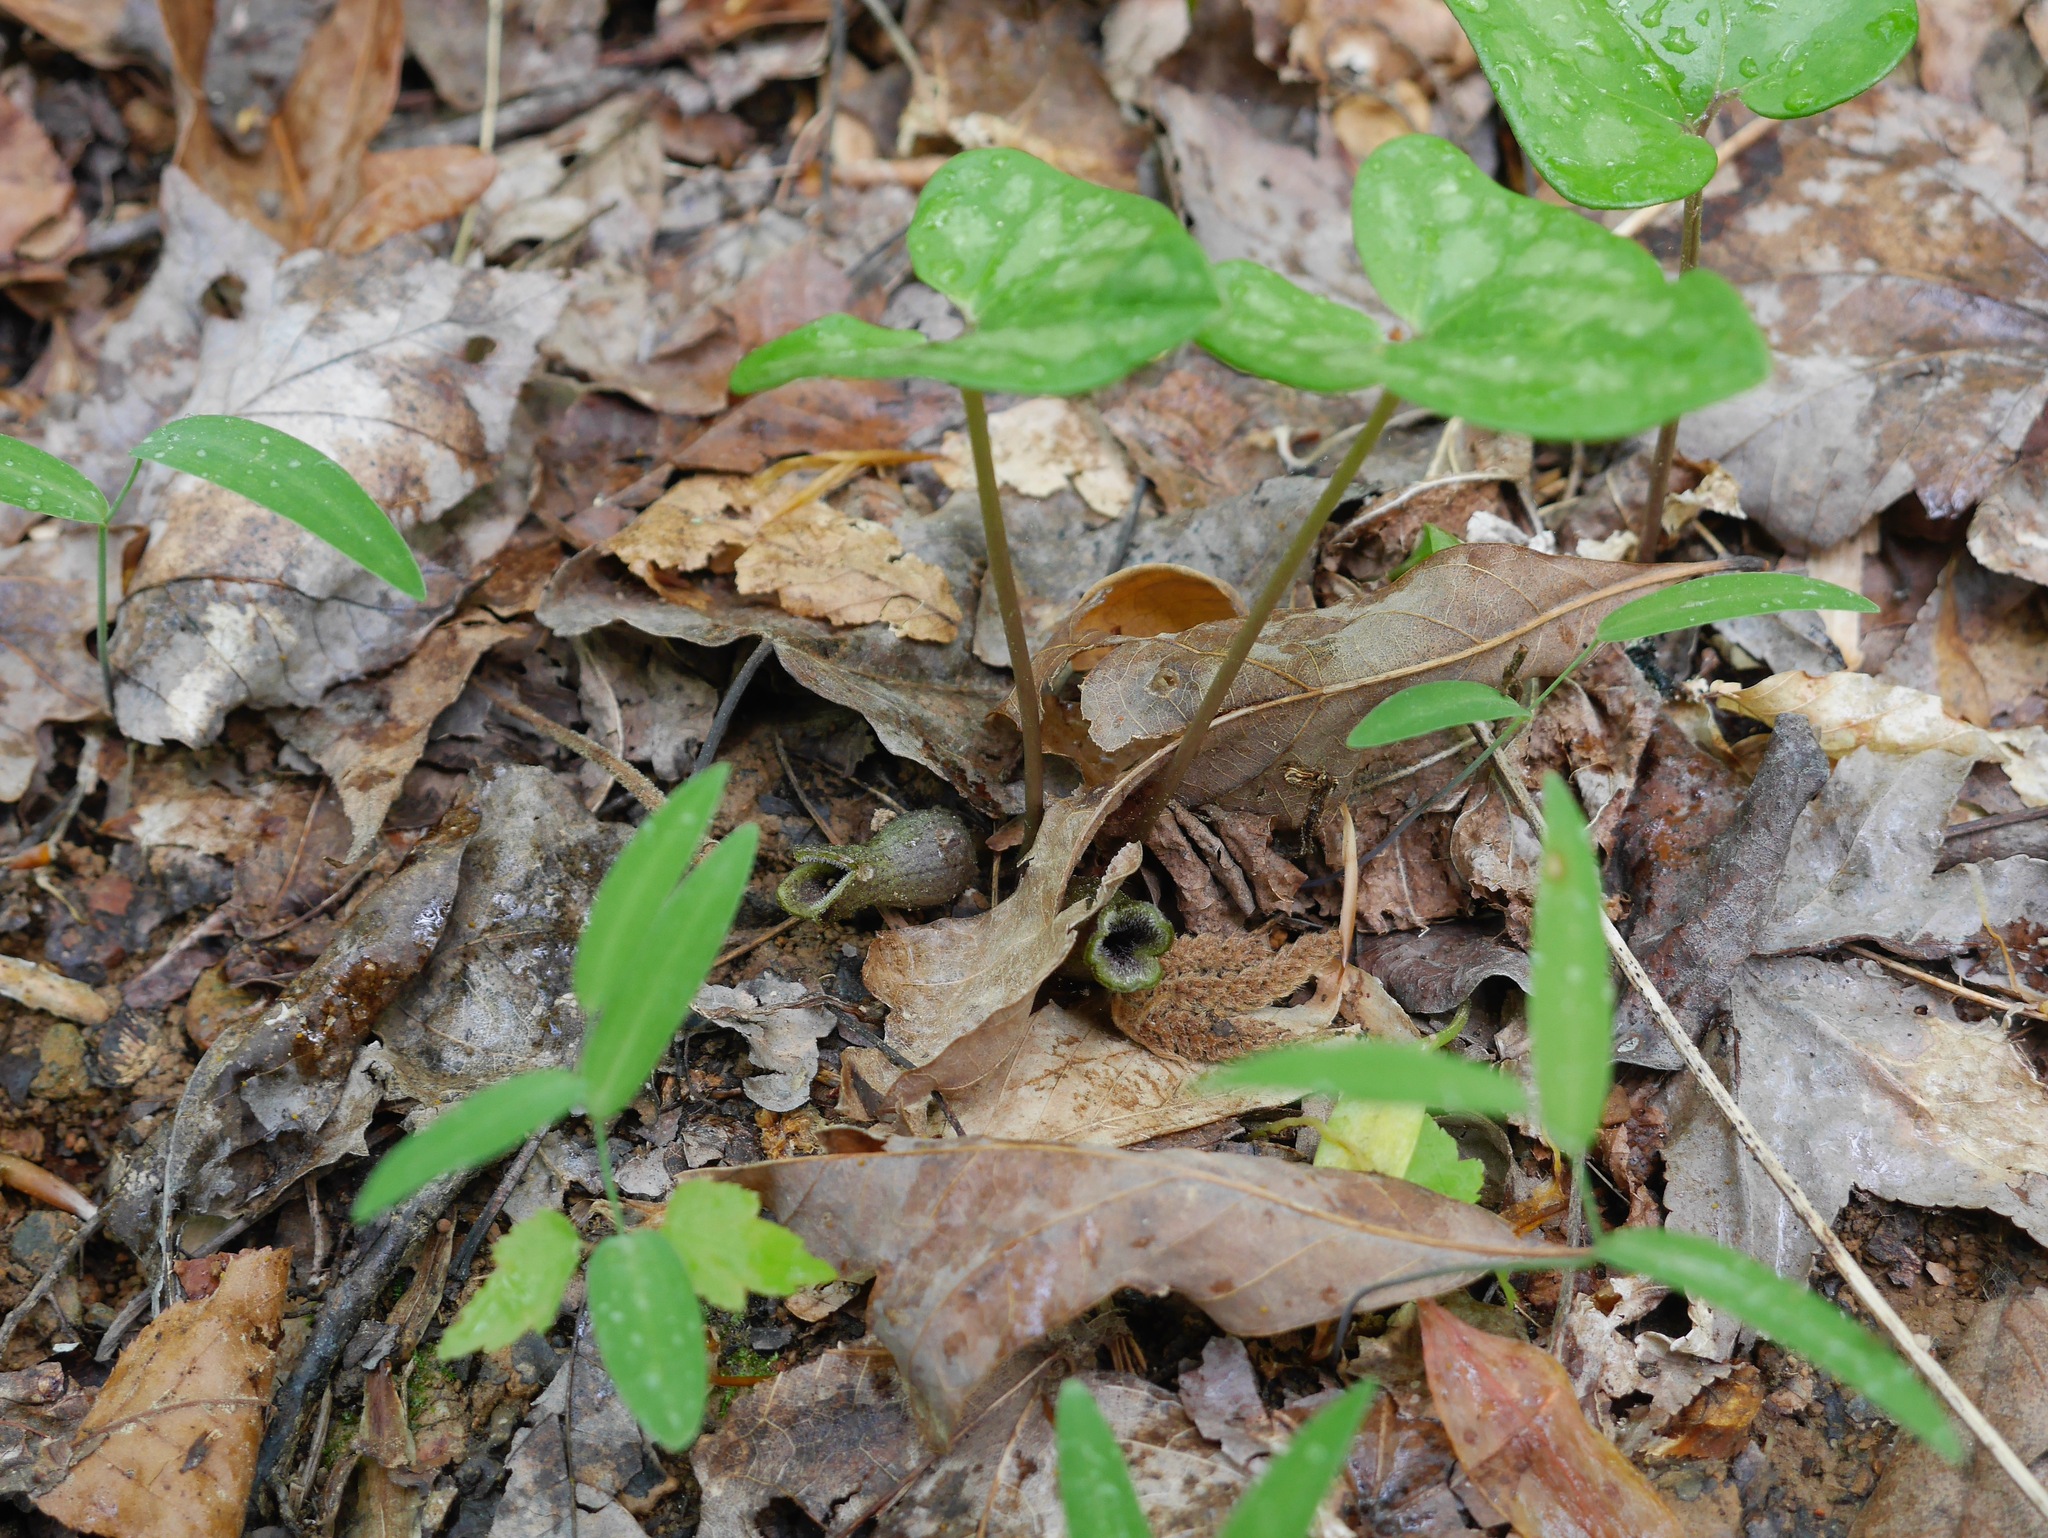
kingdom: Plantae
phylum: Tracheophyta
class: Magnoliopsida
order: Piperales
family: Aristolochiaceae
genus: Hexastylis
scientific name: Hexastylis arifolia
